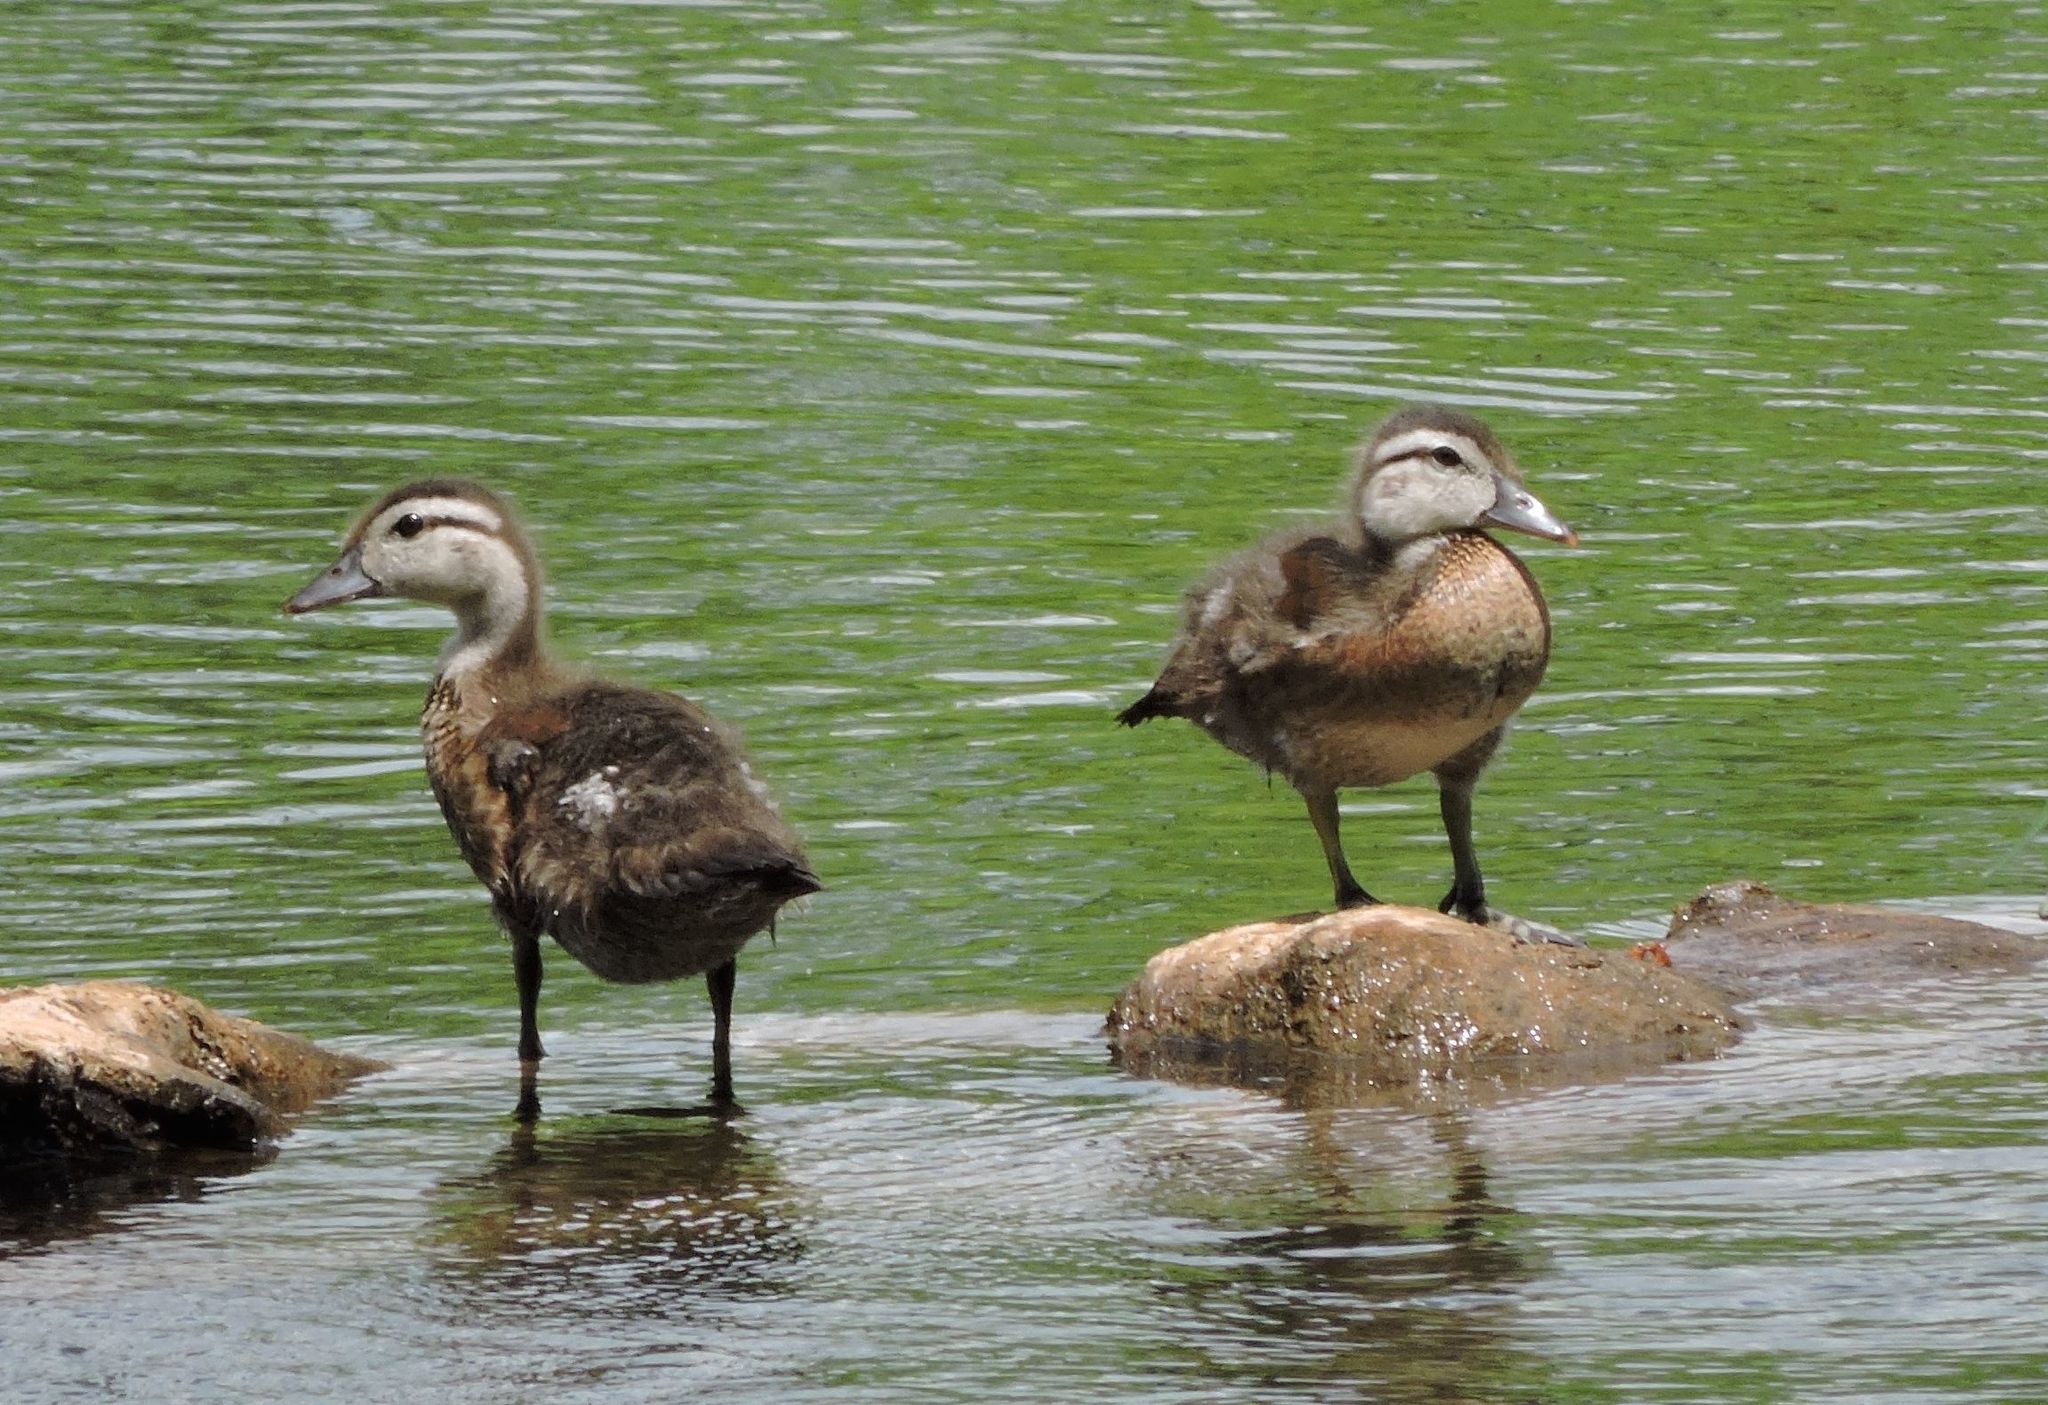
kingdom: Animalia
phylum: Chordata
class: Aves
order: Anseriformes
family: Anatidae
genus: Aix
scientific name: Aix sponsa
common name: Wood duck
